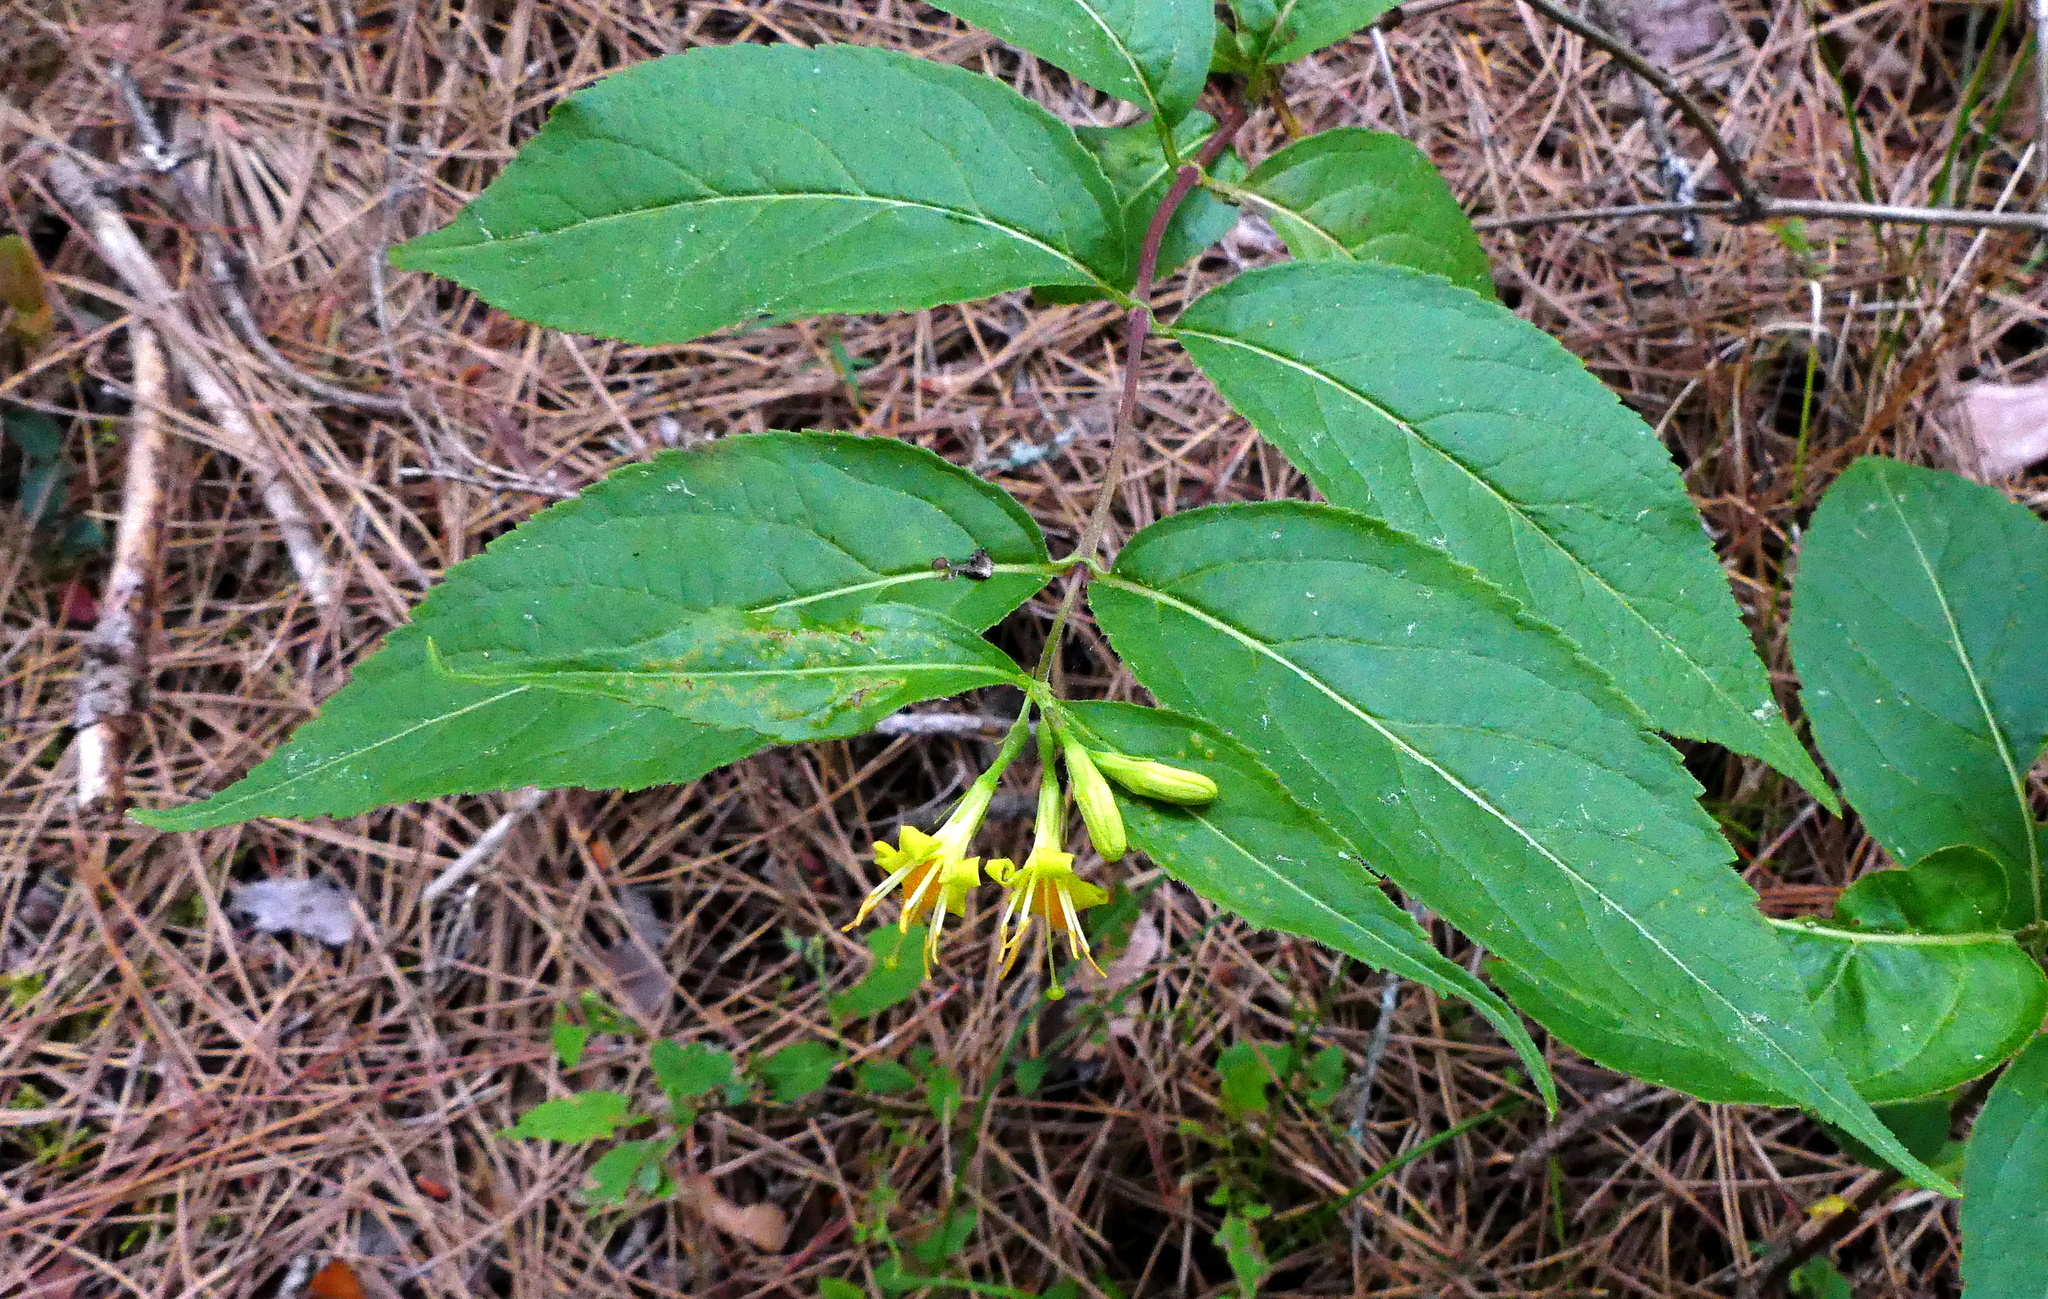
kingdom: Plantae
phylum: Tracheophyta
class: Magnoliopsida
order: Dipsacales
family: Caprifoliaceae
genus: Diervilla
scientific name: Diervilla lonicera
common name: Bush-honeysuckle
